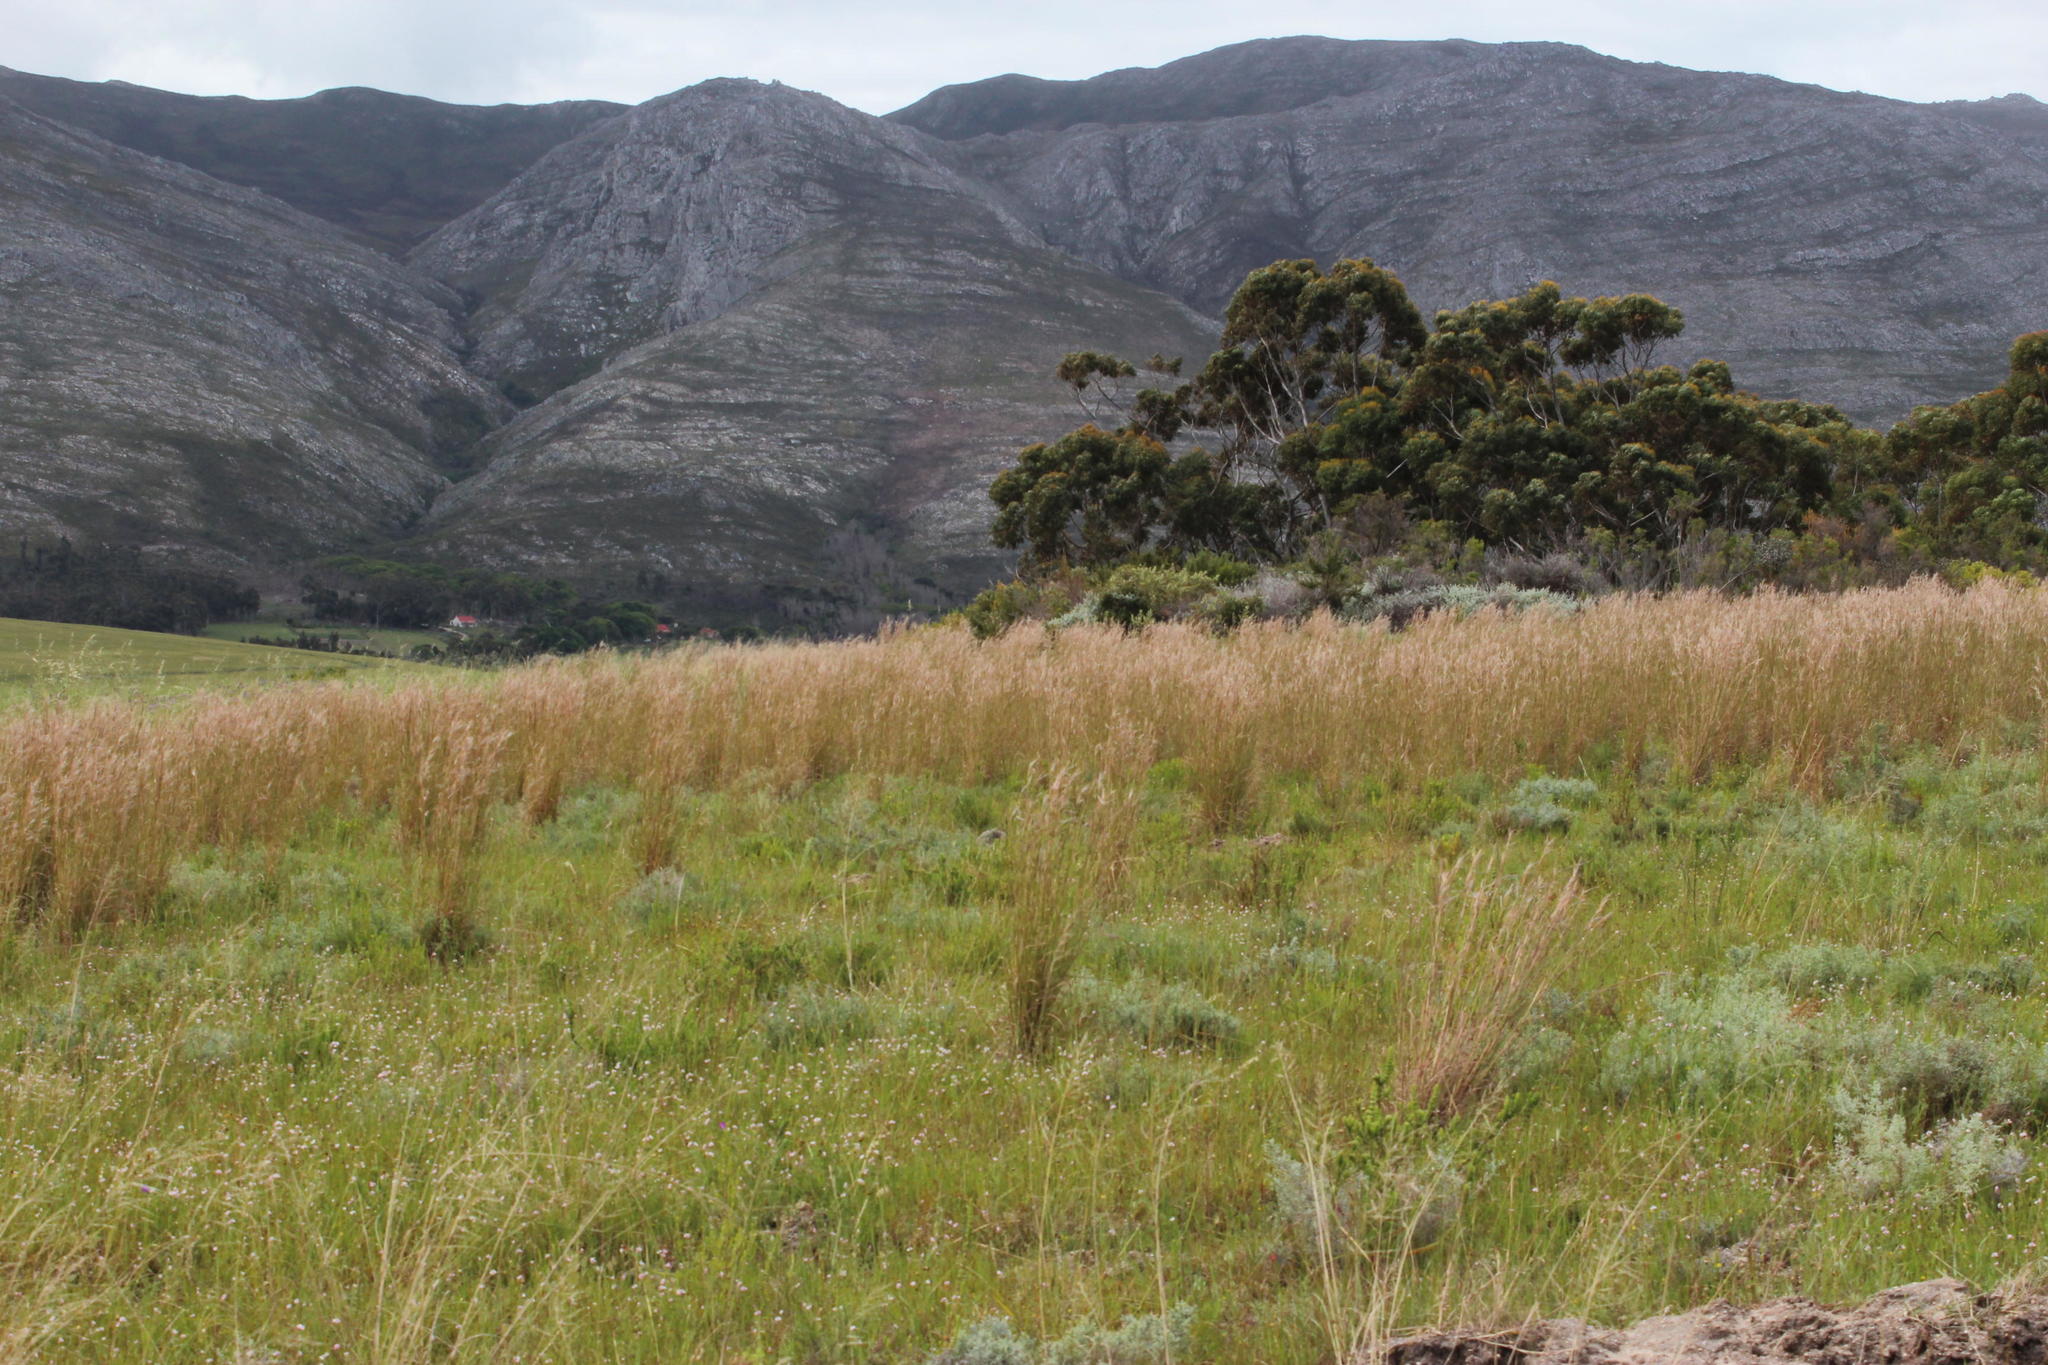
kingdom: Plantae
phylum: Tracheophyta
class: Liliopsida
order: Poales
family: Poaceae
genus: Hyparrhenia
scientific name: Hyparrhenia hirta
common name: Thatching grass
